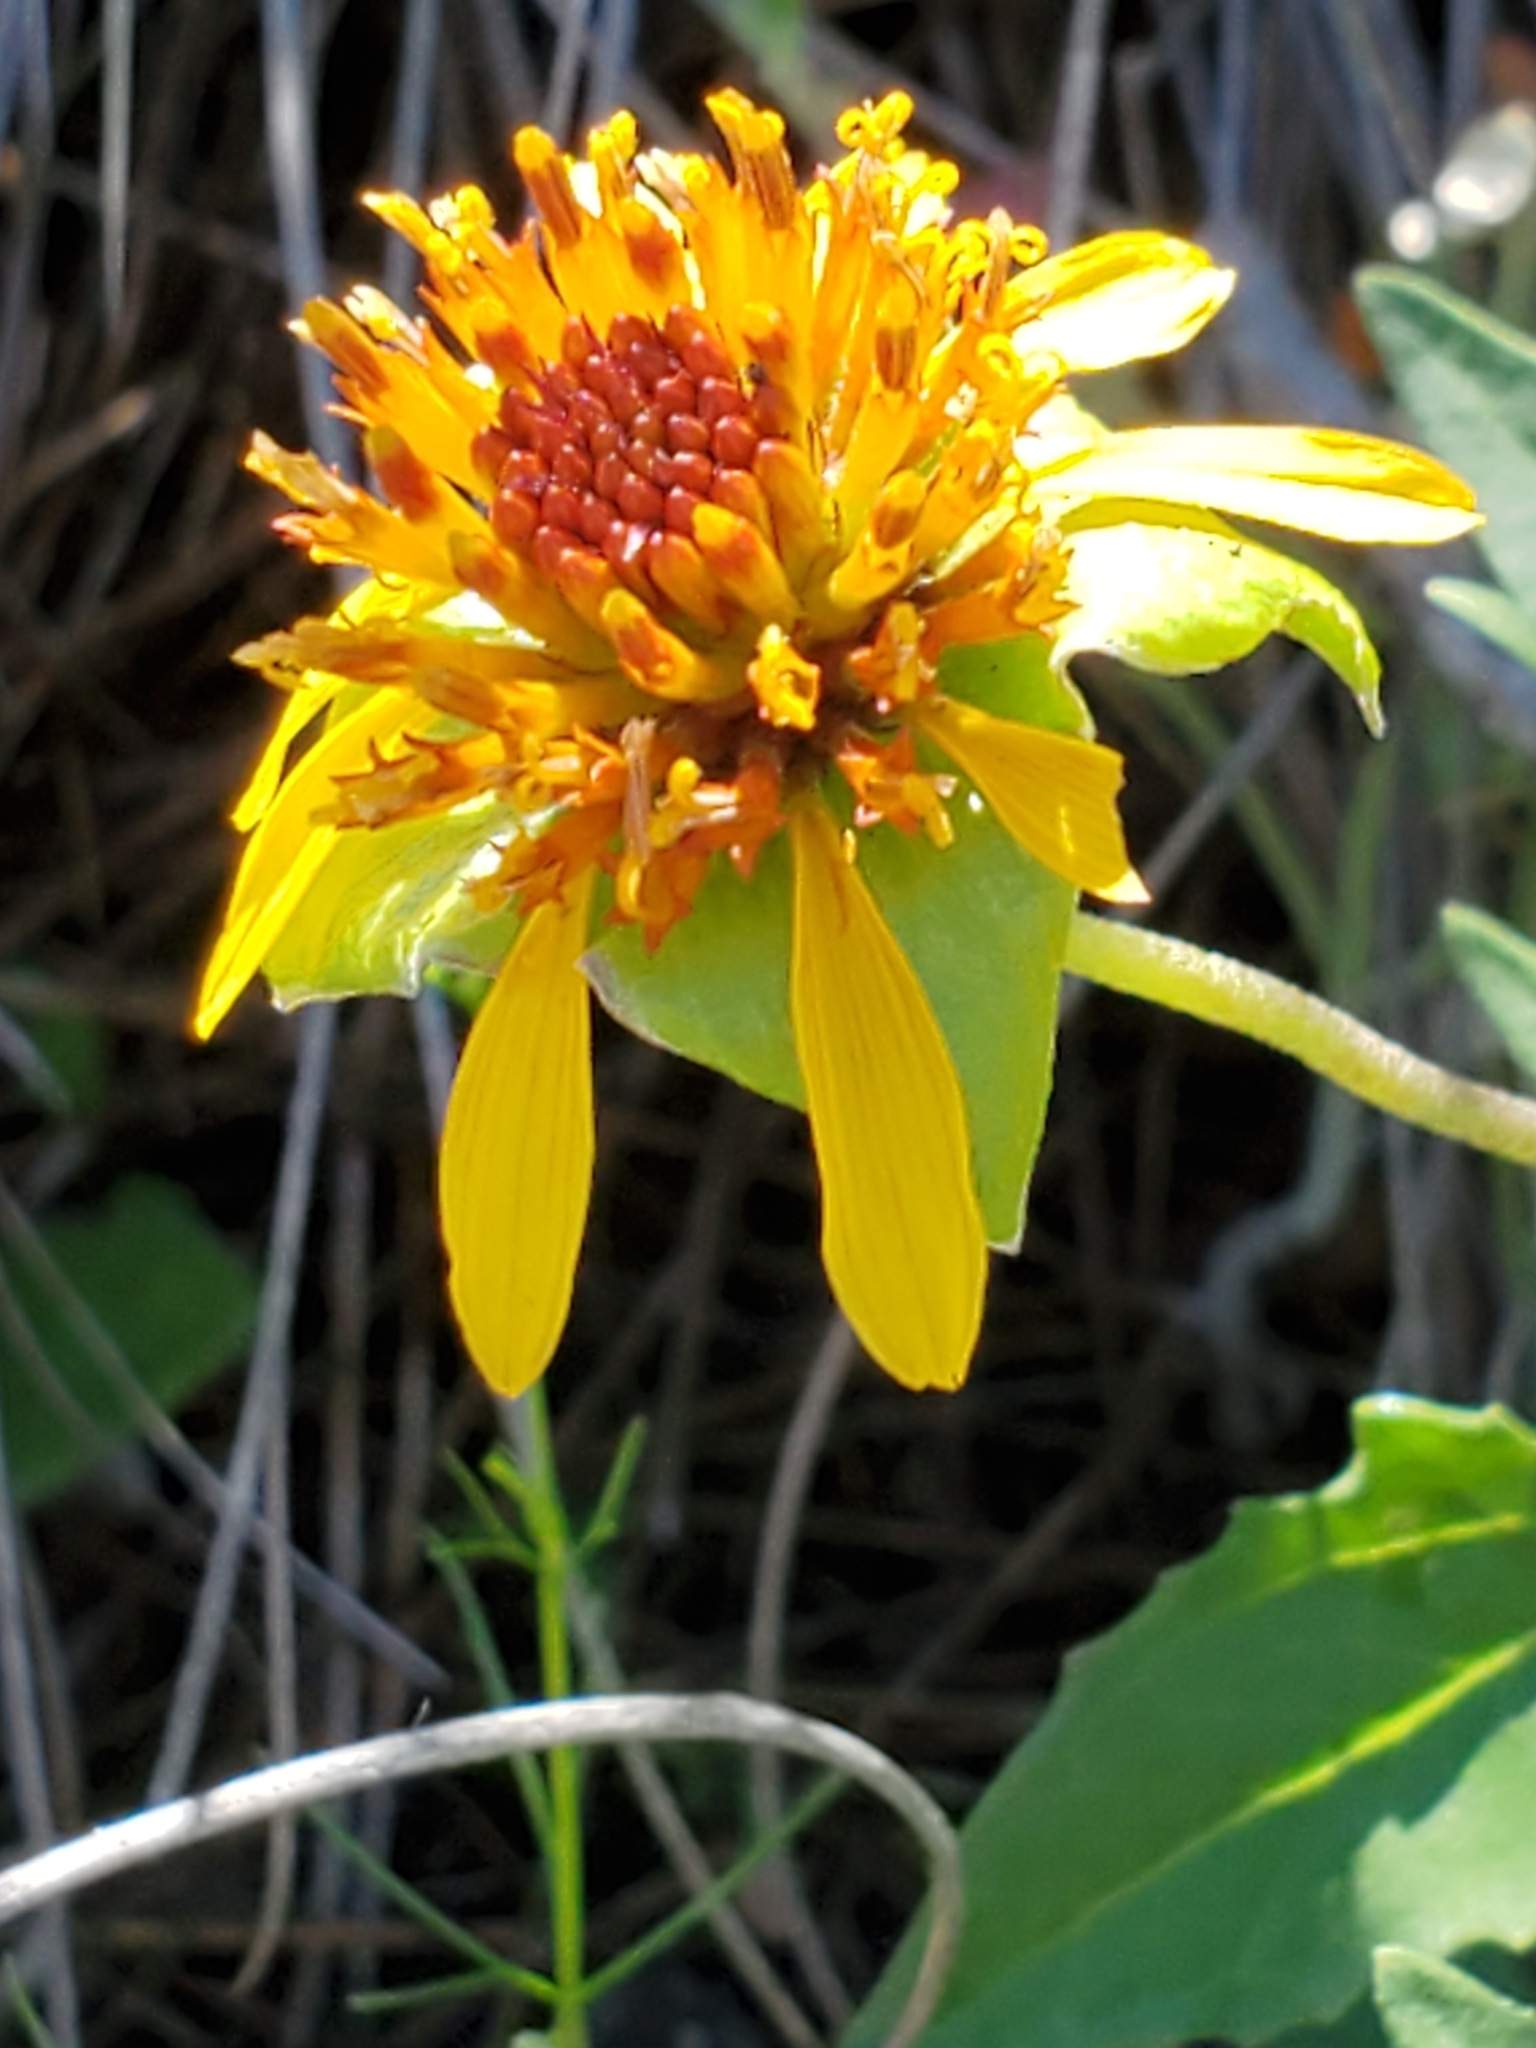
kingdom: Plantae
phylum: Tracheophyta
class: Magnoliopsida
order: Asterales
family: Asteraceae
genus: Tetragonotheca
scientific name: Tetragonotheca texana
